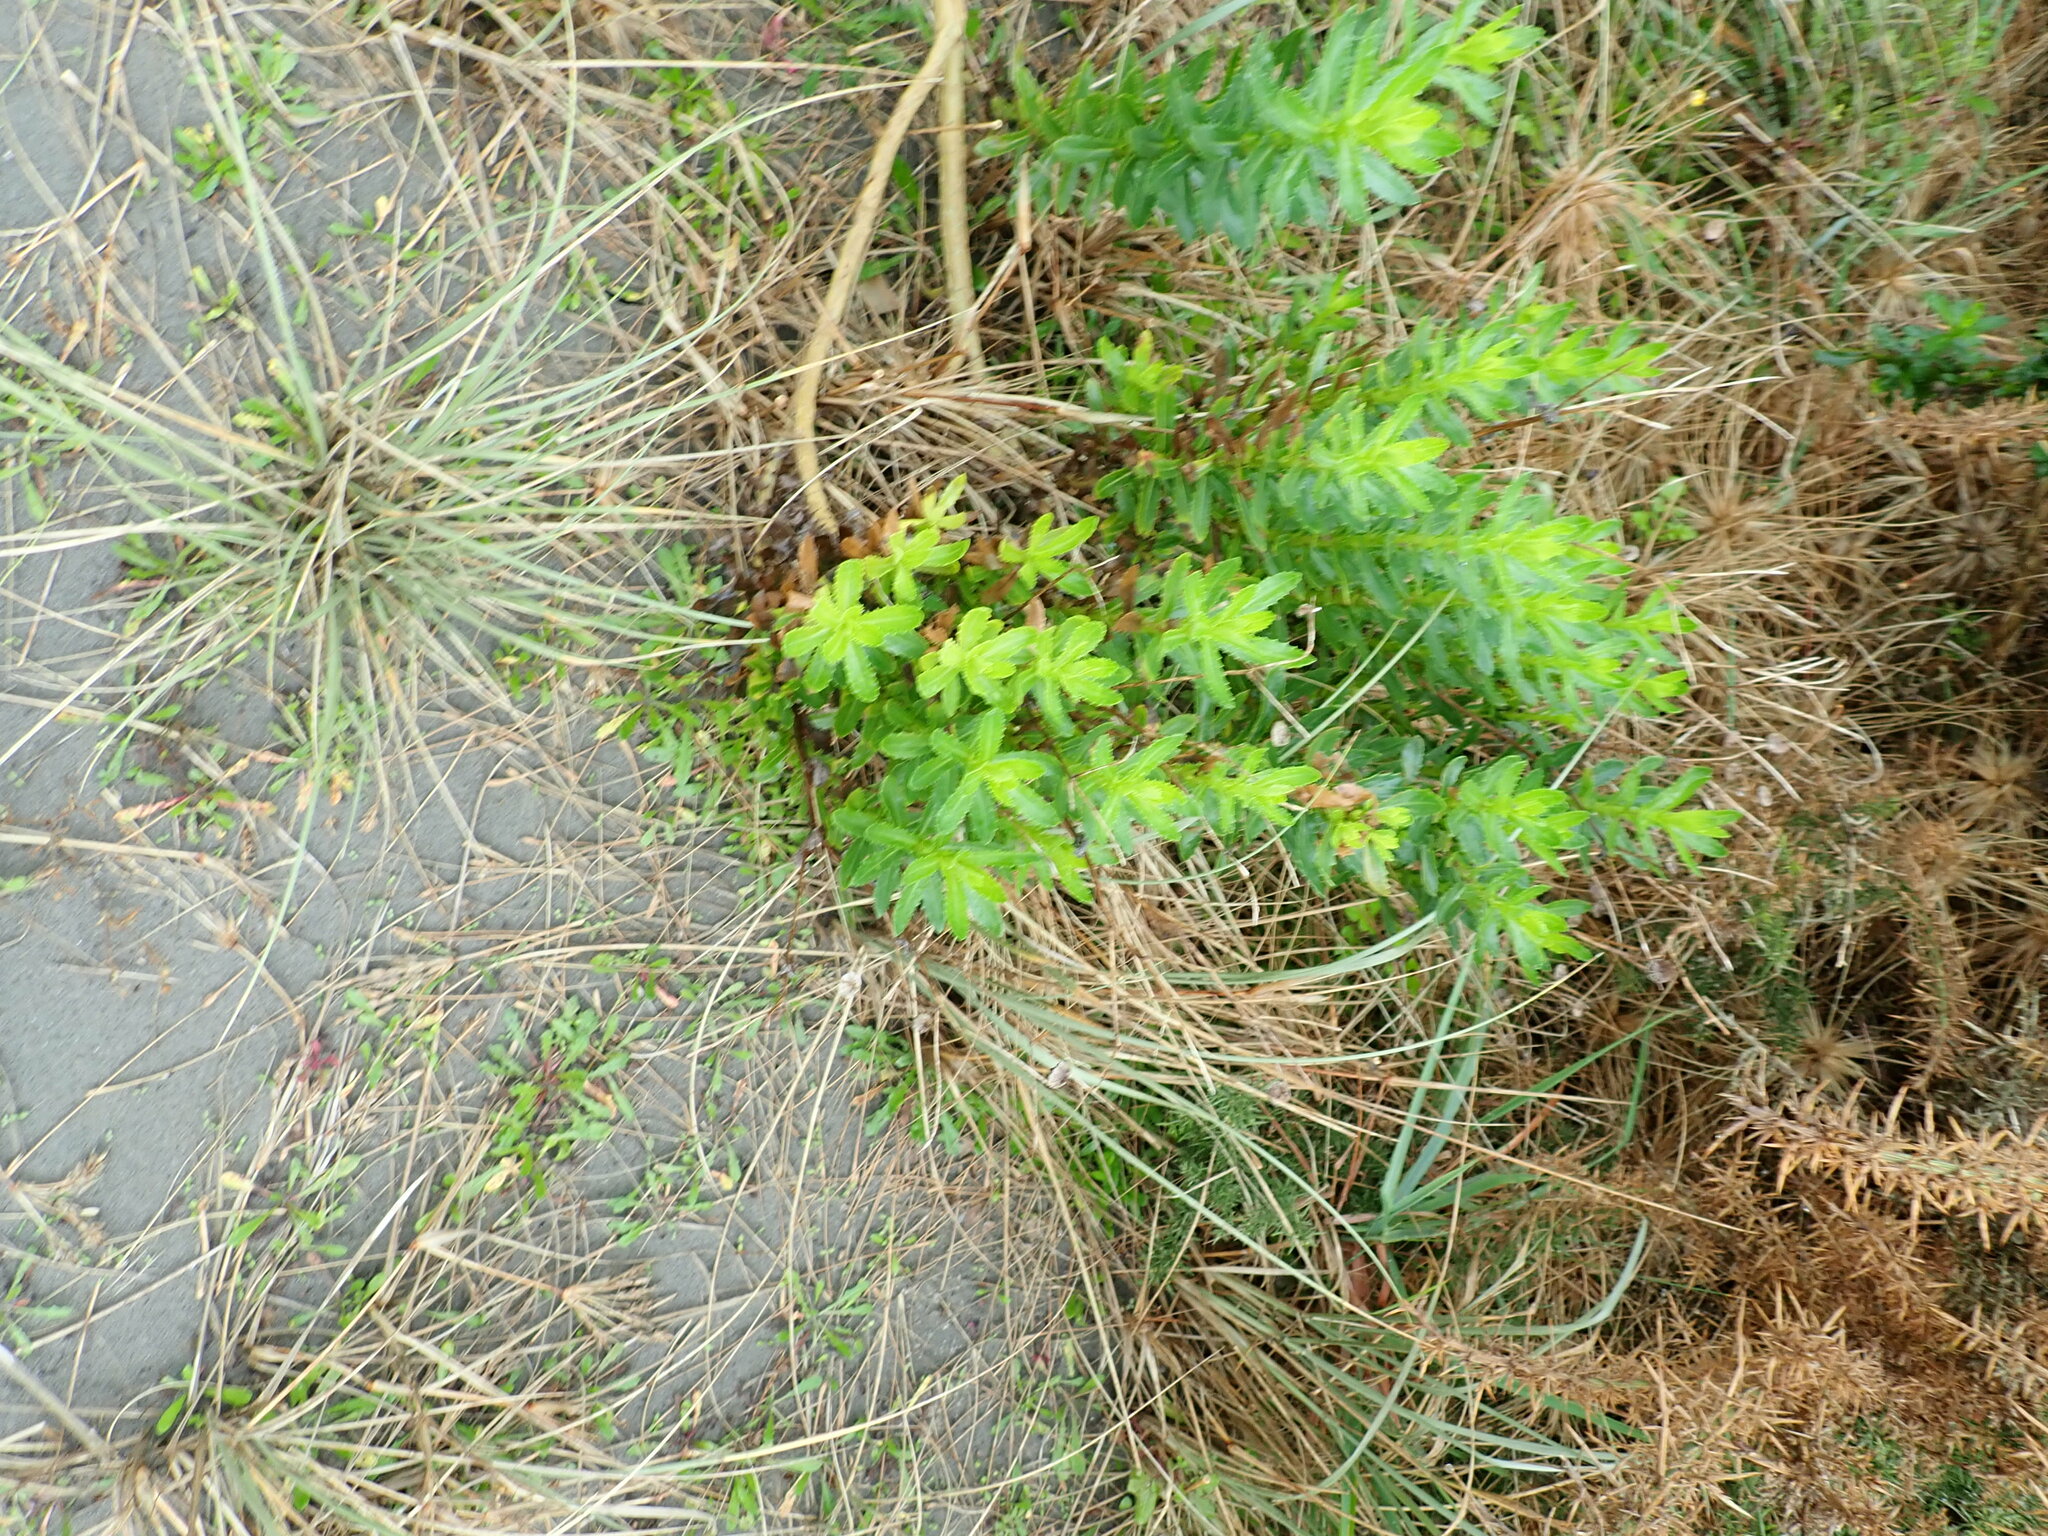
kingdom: Plantae
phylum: Tracheophyta
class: Magnoliopsida
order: Asterales
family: Asteraceae
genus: Senecio
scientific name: Senecio glastifolius
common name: Woad-leaved ragwort
